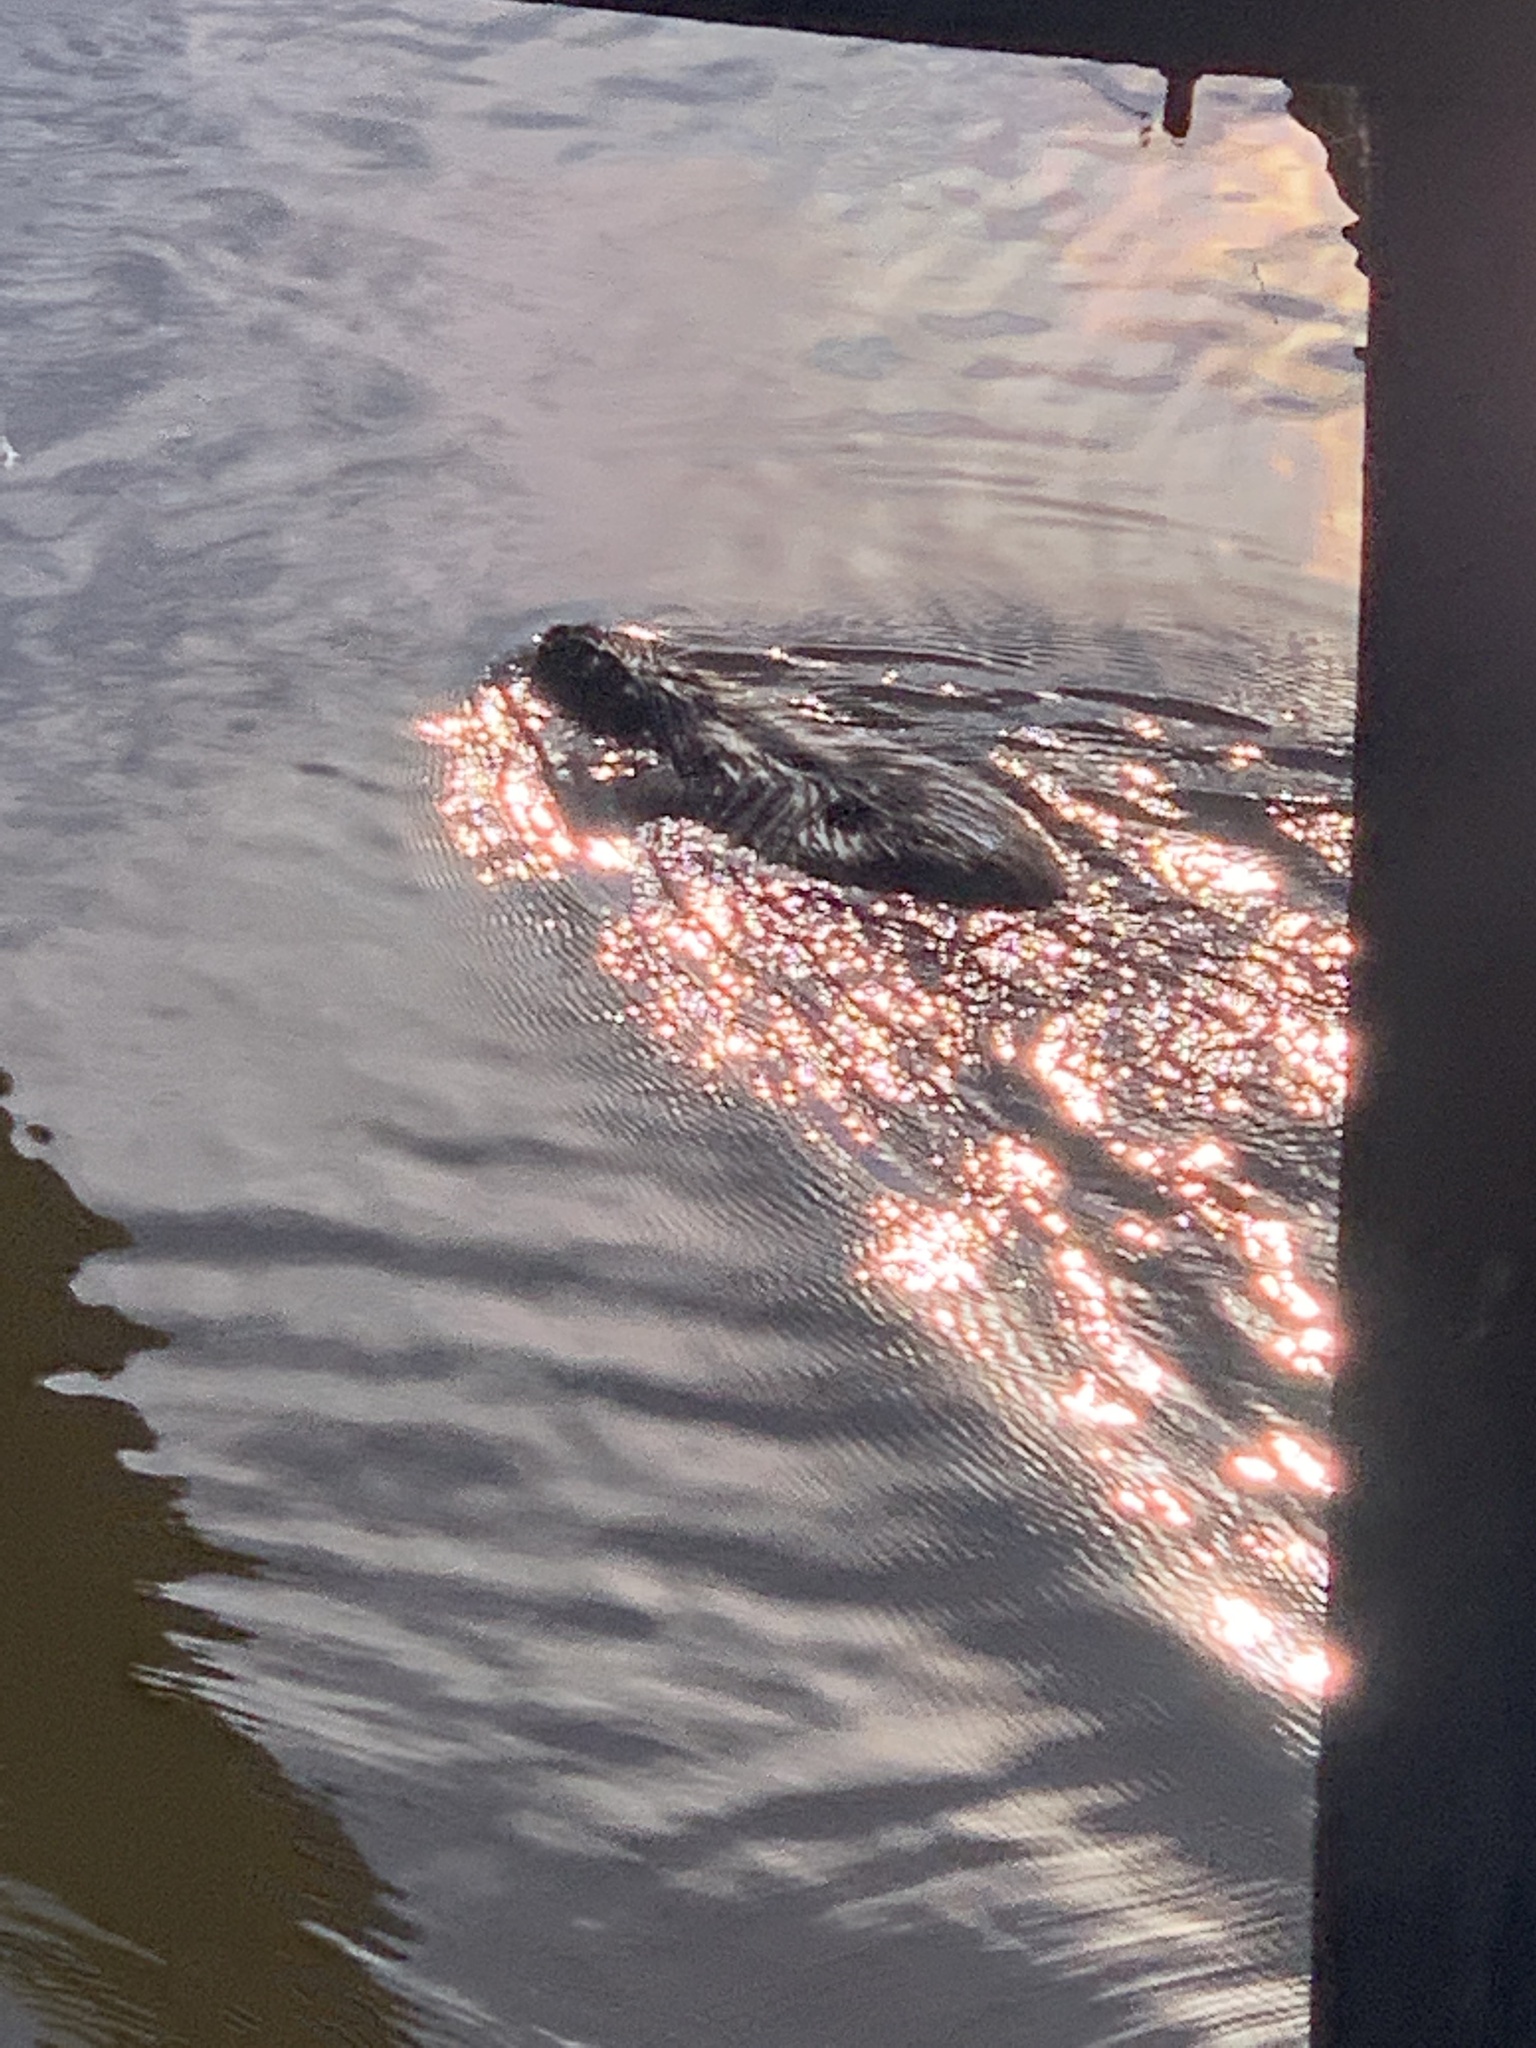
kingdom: Animalia
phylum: Chordata
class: Mammalia
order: Rodentia
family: Myocastoridae
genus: Myocastor
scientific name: Myocastor coypus
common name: Coypu
